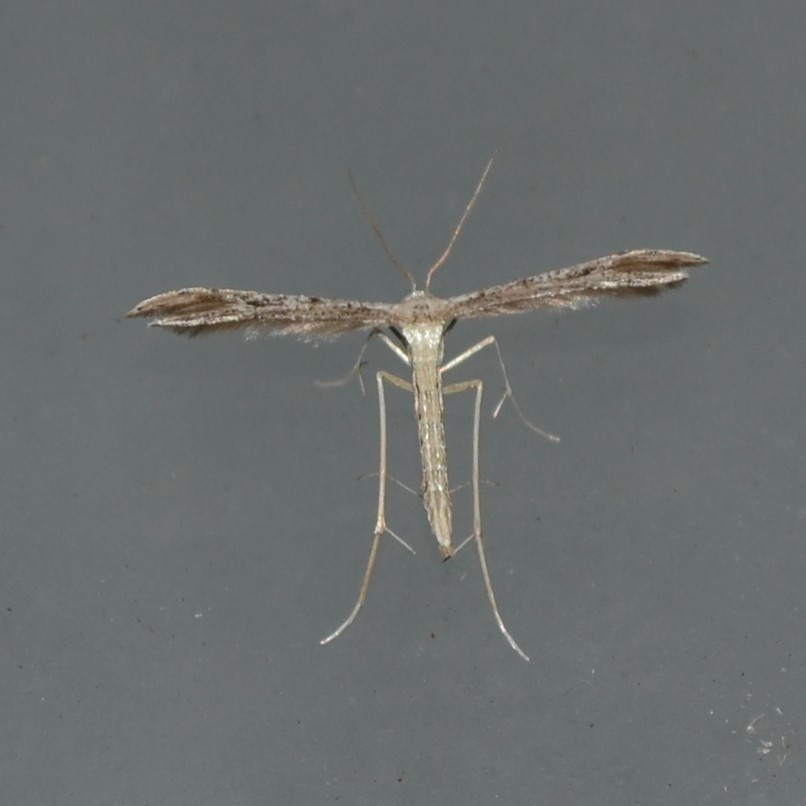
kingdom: Animalia
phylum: Arthropoda
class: Insecta
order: Lepidoptera
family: Pterophoridae
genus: Pselnophorus
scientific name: Pselnophorus belfragei
